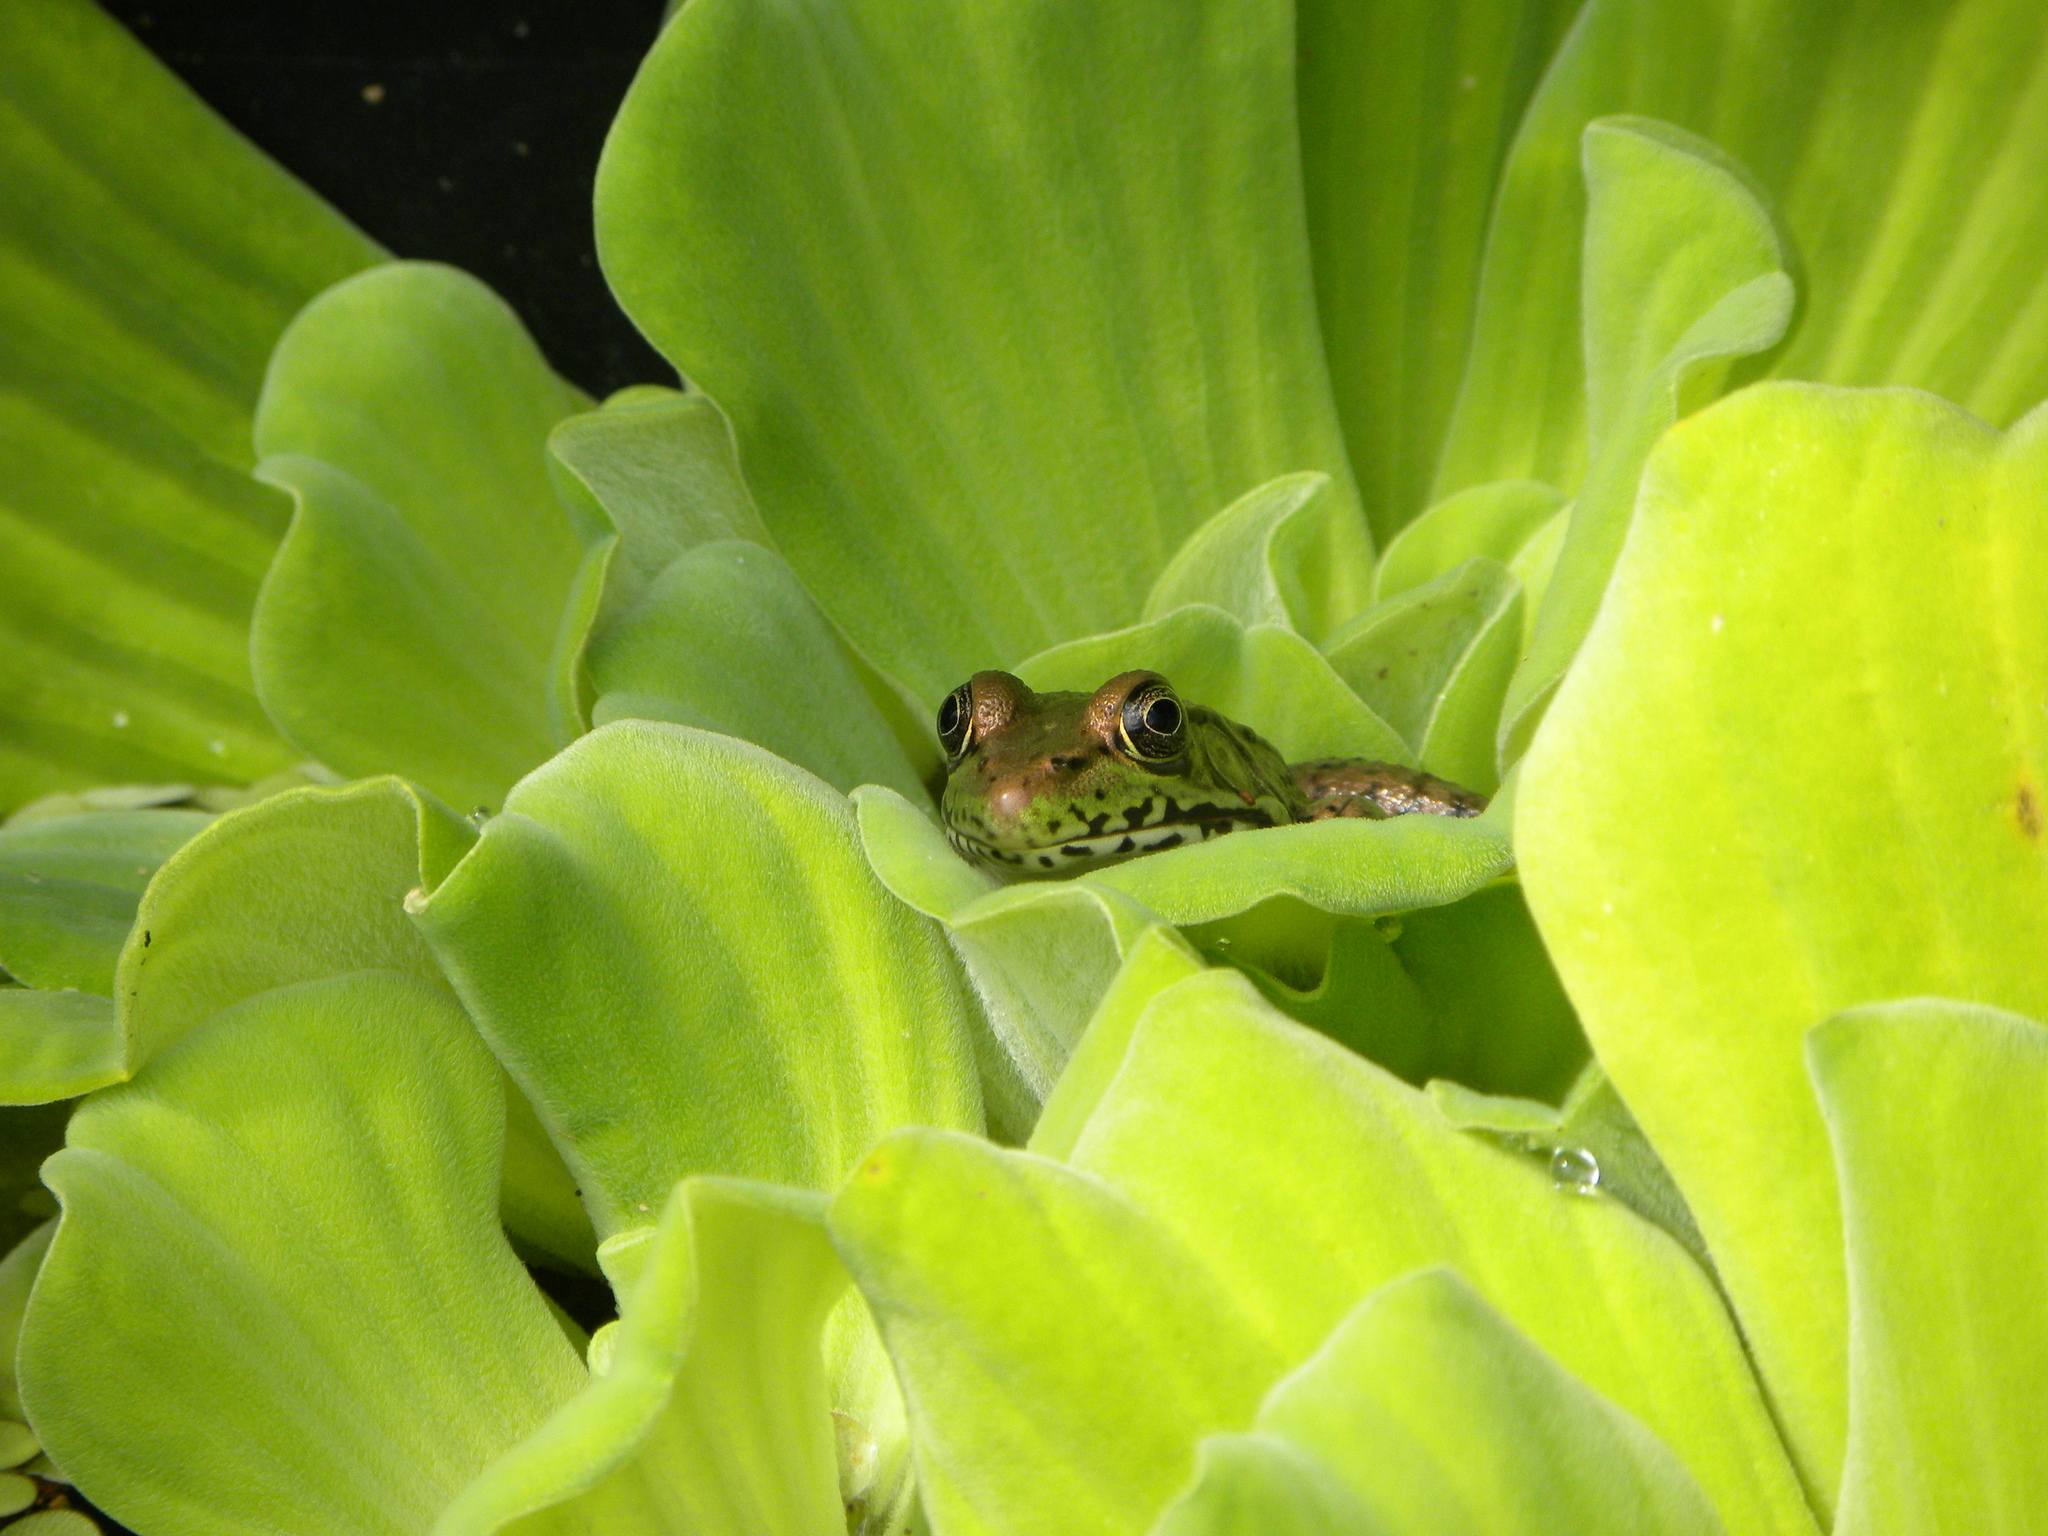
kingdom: Animalia
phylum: Chordata
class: Amphibia
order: Anura
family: Ranidae
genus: Lithobates
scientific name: Lithobates clamitans
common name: Green frog
